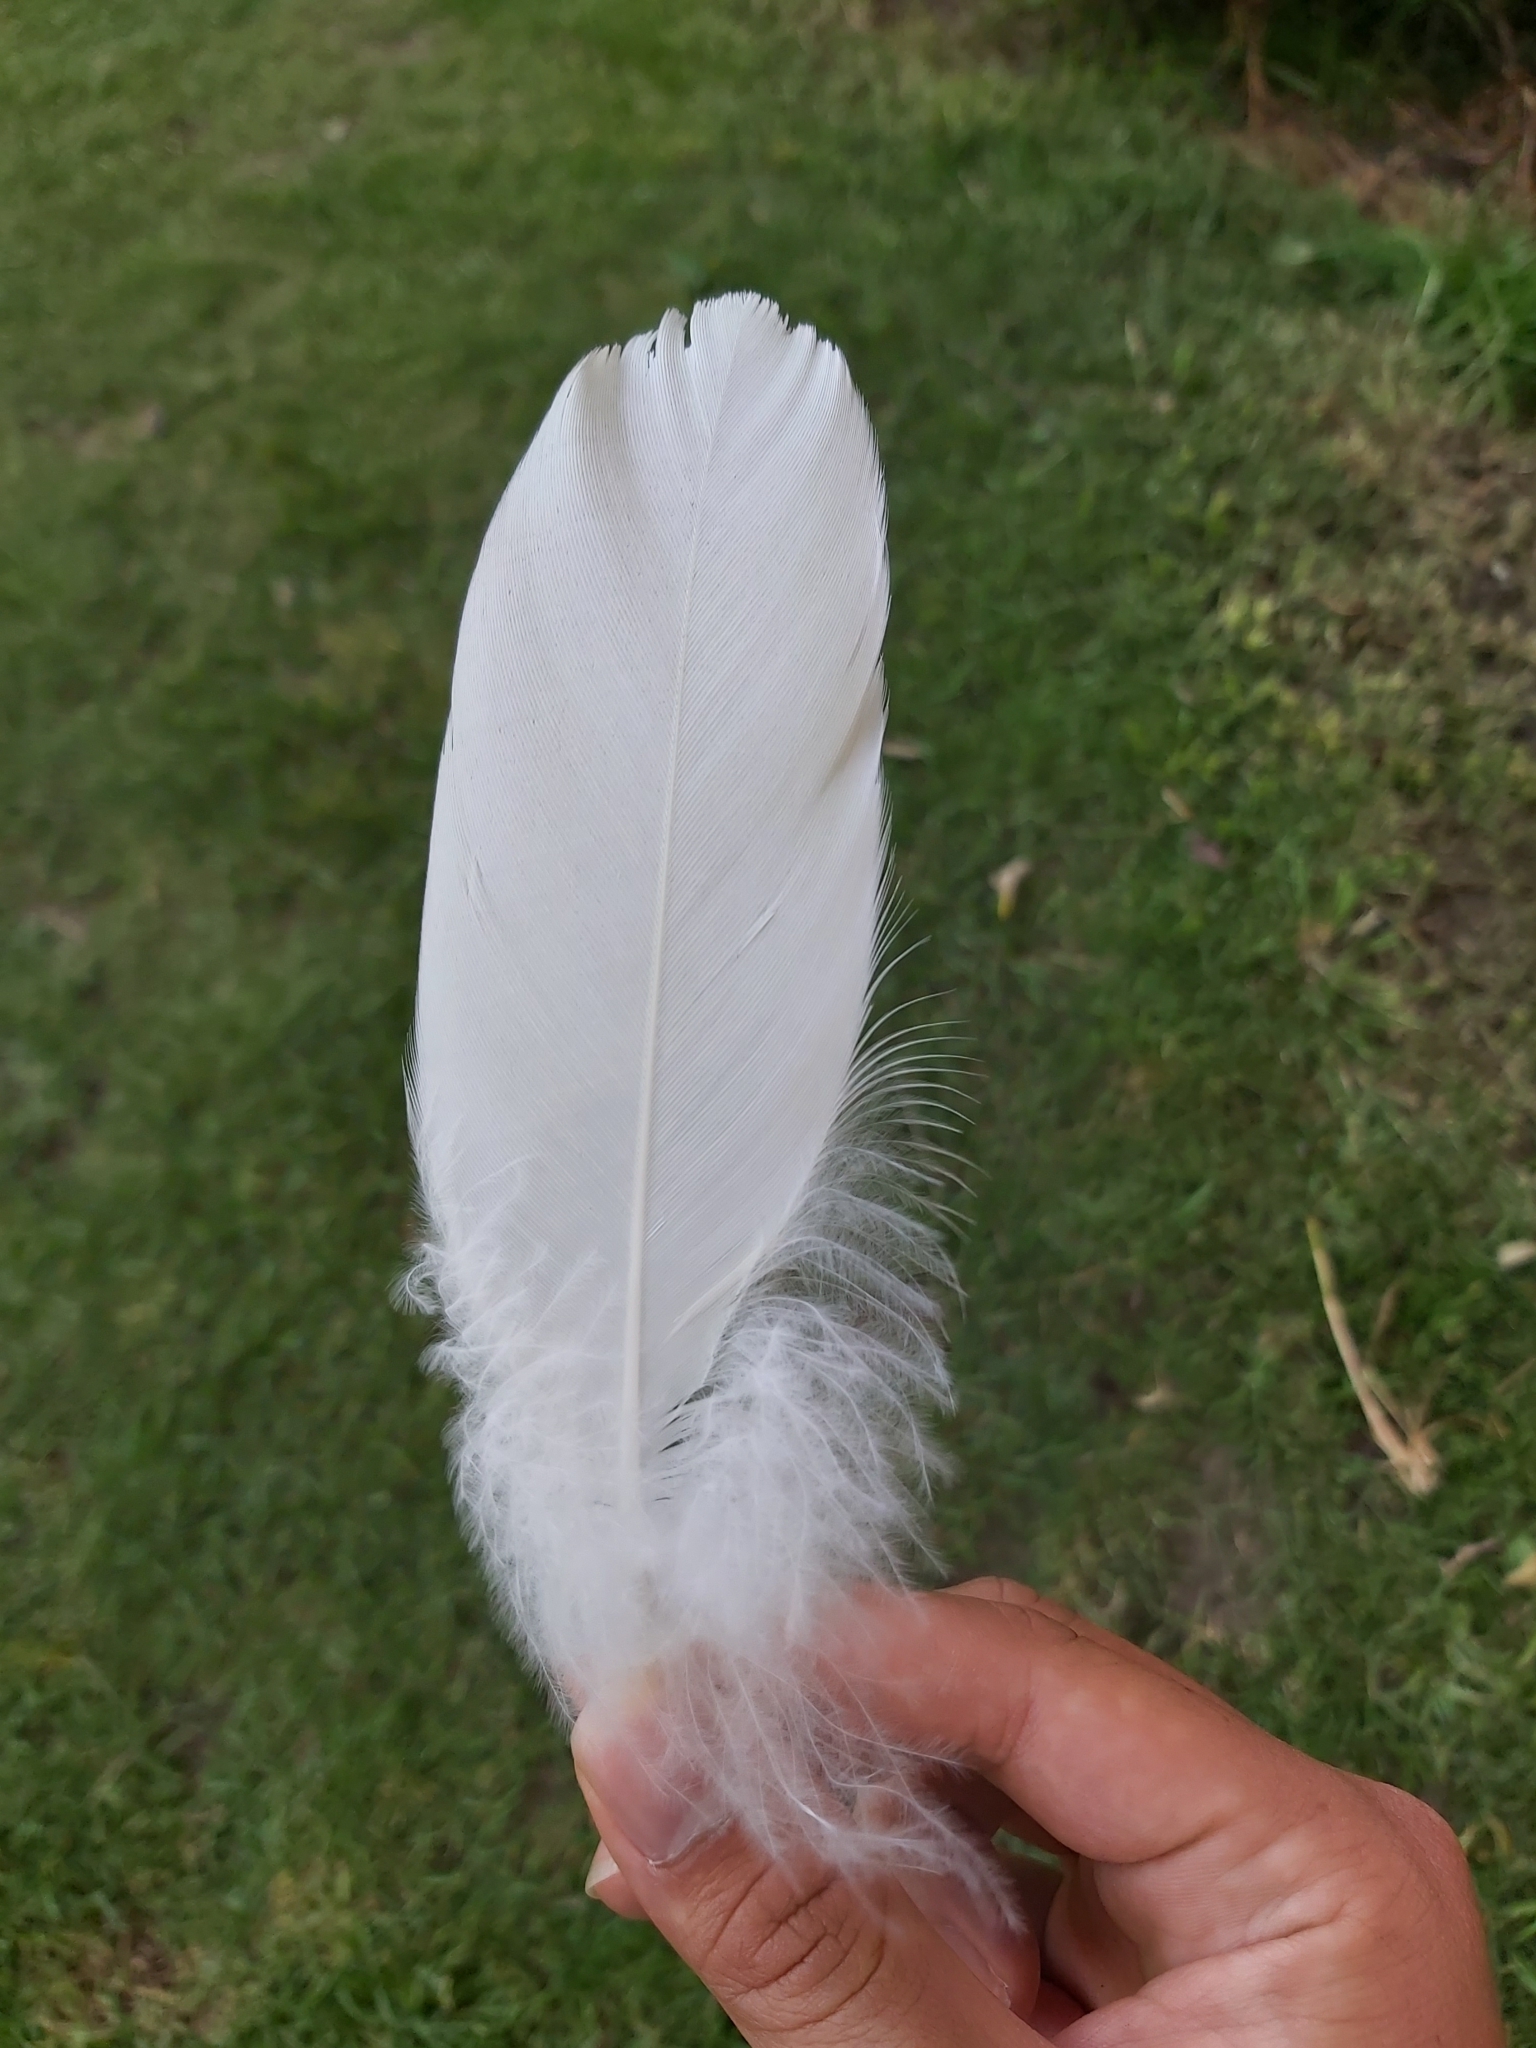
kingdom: Animalia
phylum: Chordata
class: Aves
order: Psittaciformes
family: Psittacidae
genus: Cacatua
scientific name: Cacatua galerita
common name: Sulphur-crested cockatoo
